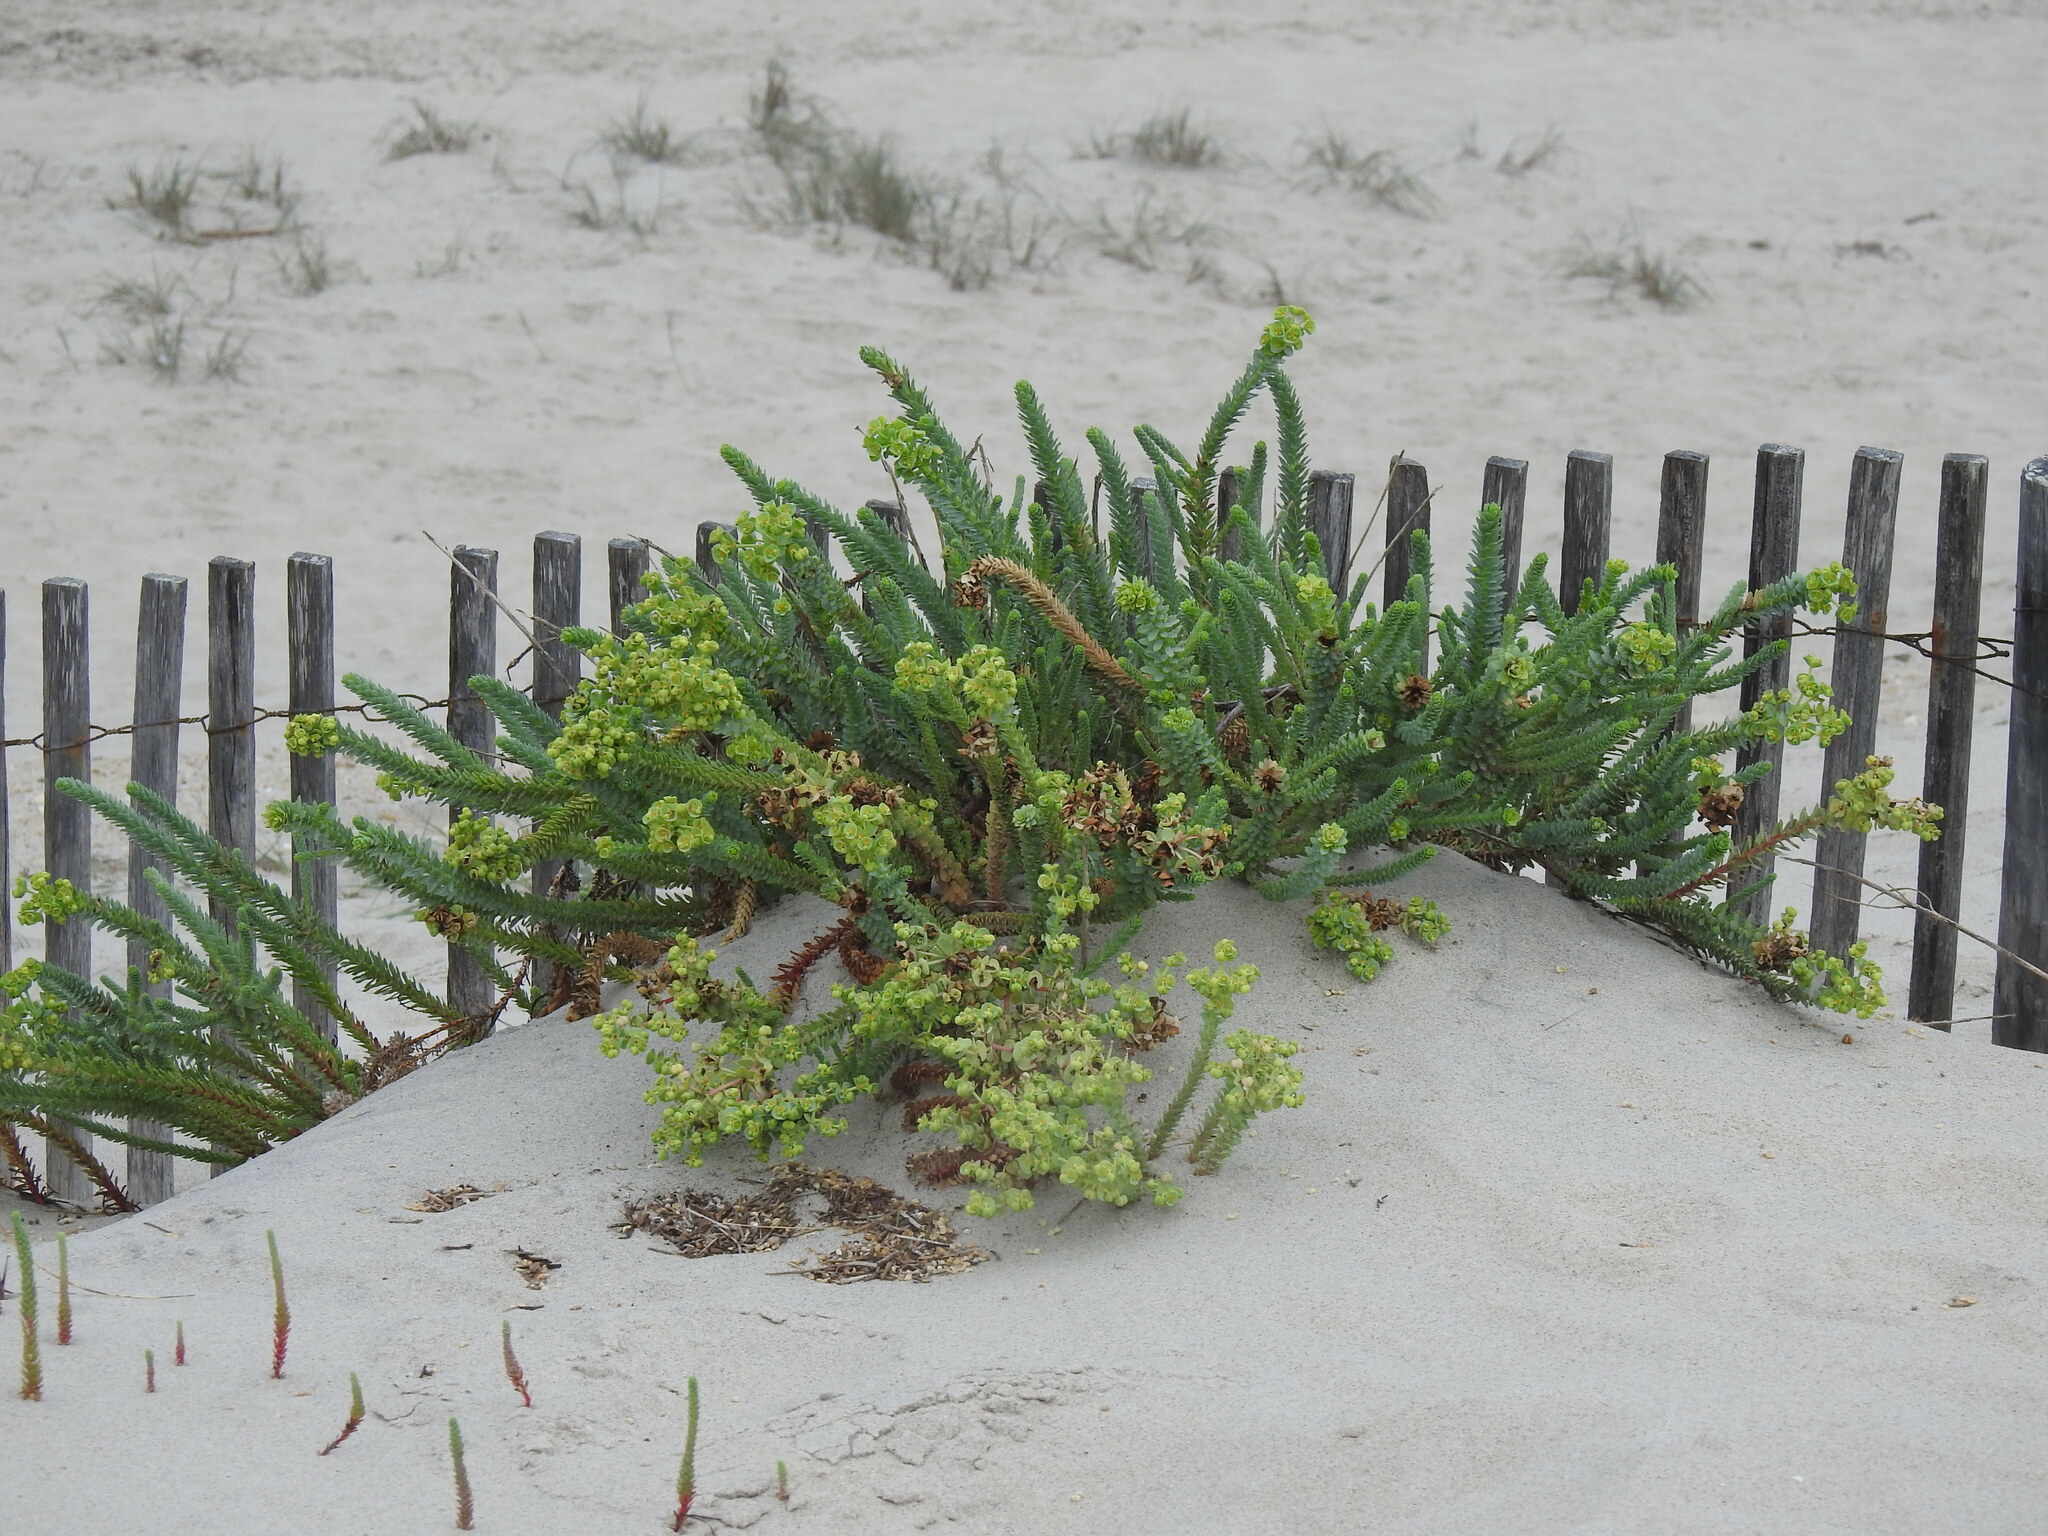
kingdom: Plantae
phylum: Tracheophyta
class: Magnoliopsida
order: Malpighiales
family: Euphorbiaceae
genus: Euphorbia
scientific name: Euphorbia paralias
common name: Sea spurge
